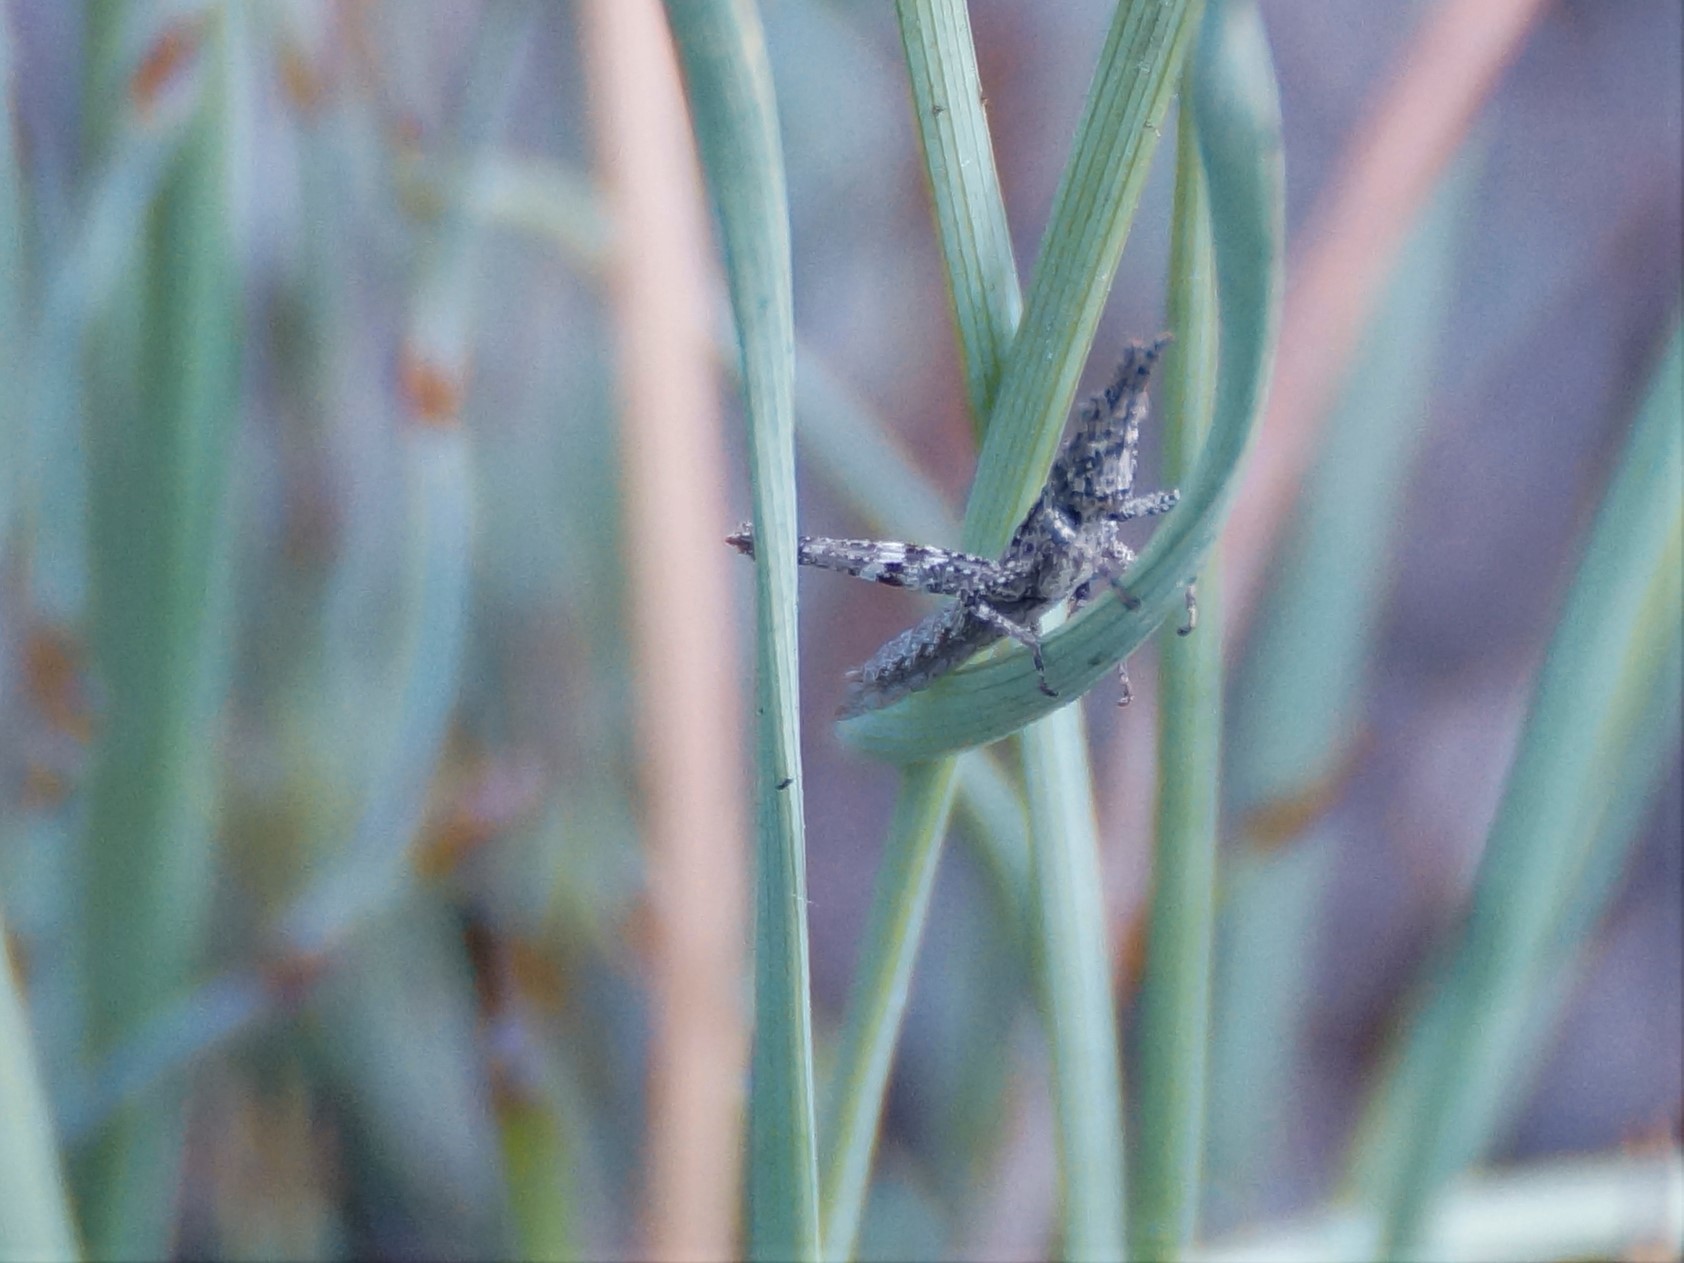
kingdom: Animalia
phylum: Arthropoda
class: Insecta
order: Orthoptera
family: Acrididae
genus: Coryphistes
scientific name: Coryphistes ruricola
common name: Bark-mimicking grasshopper
